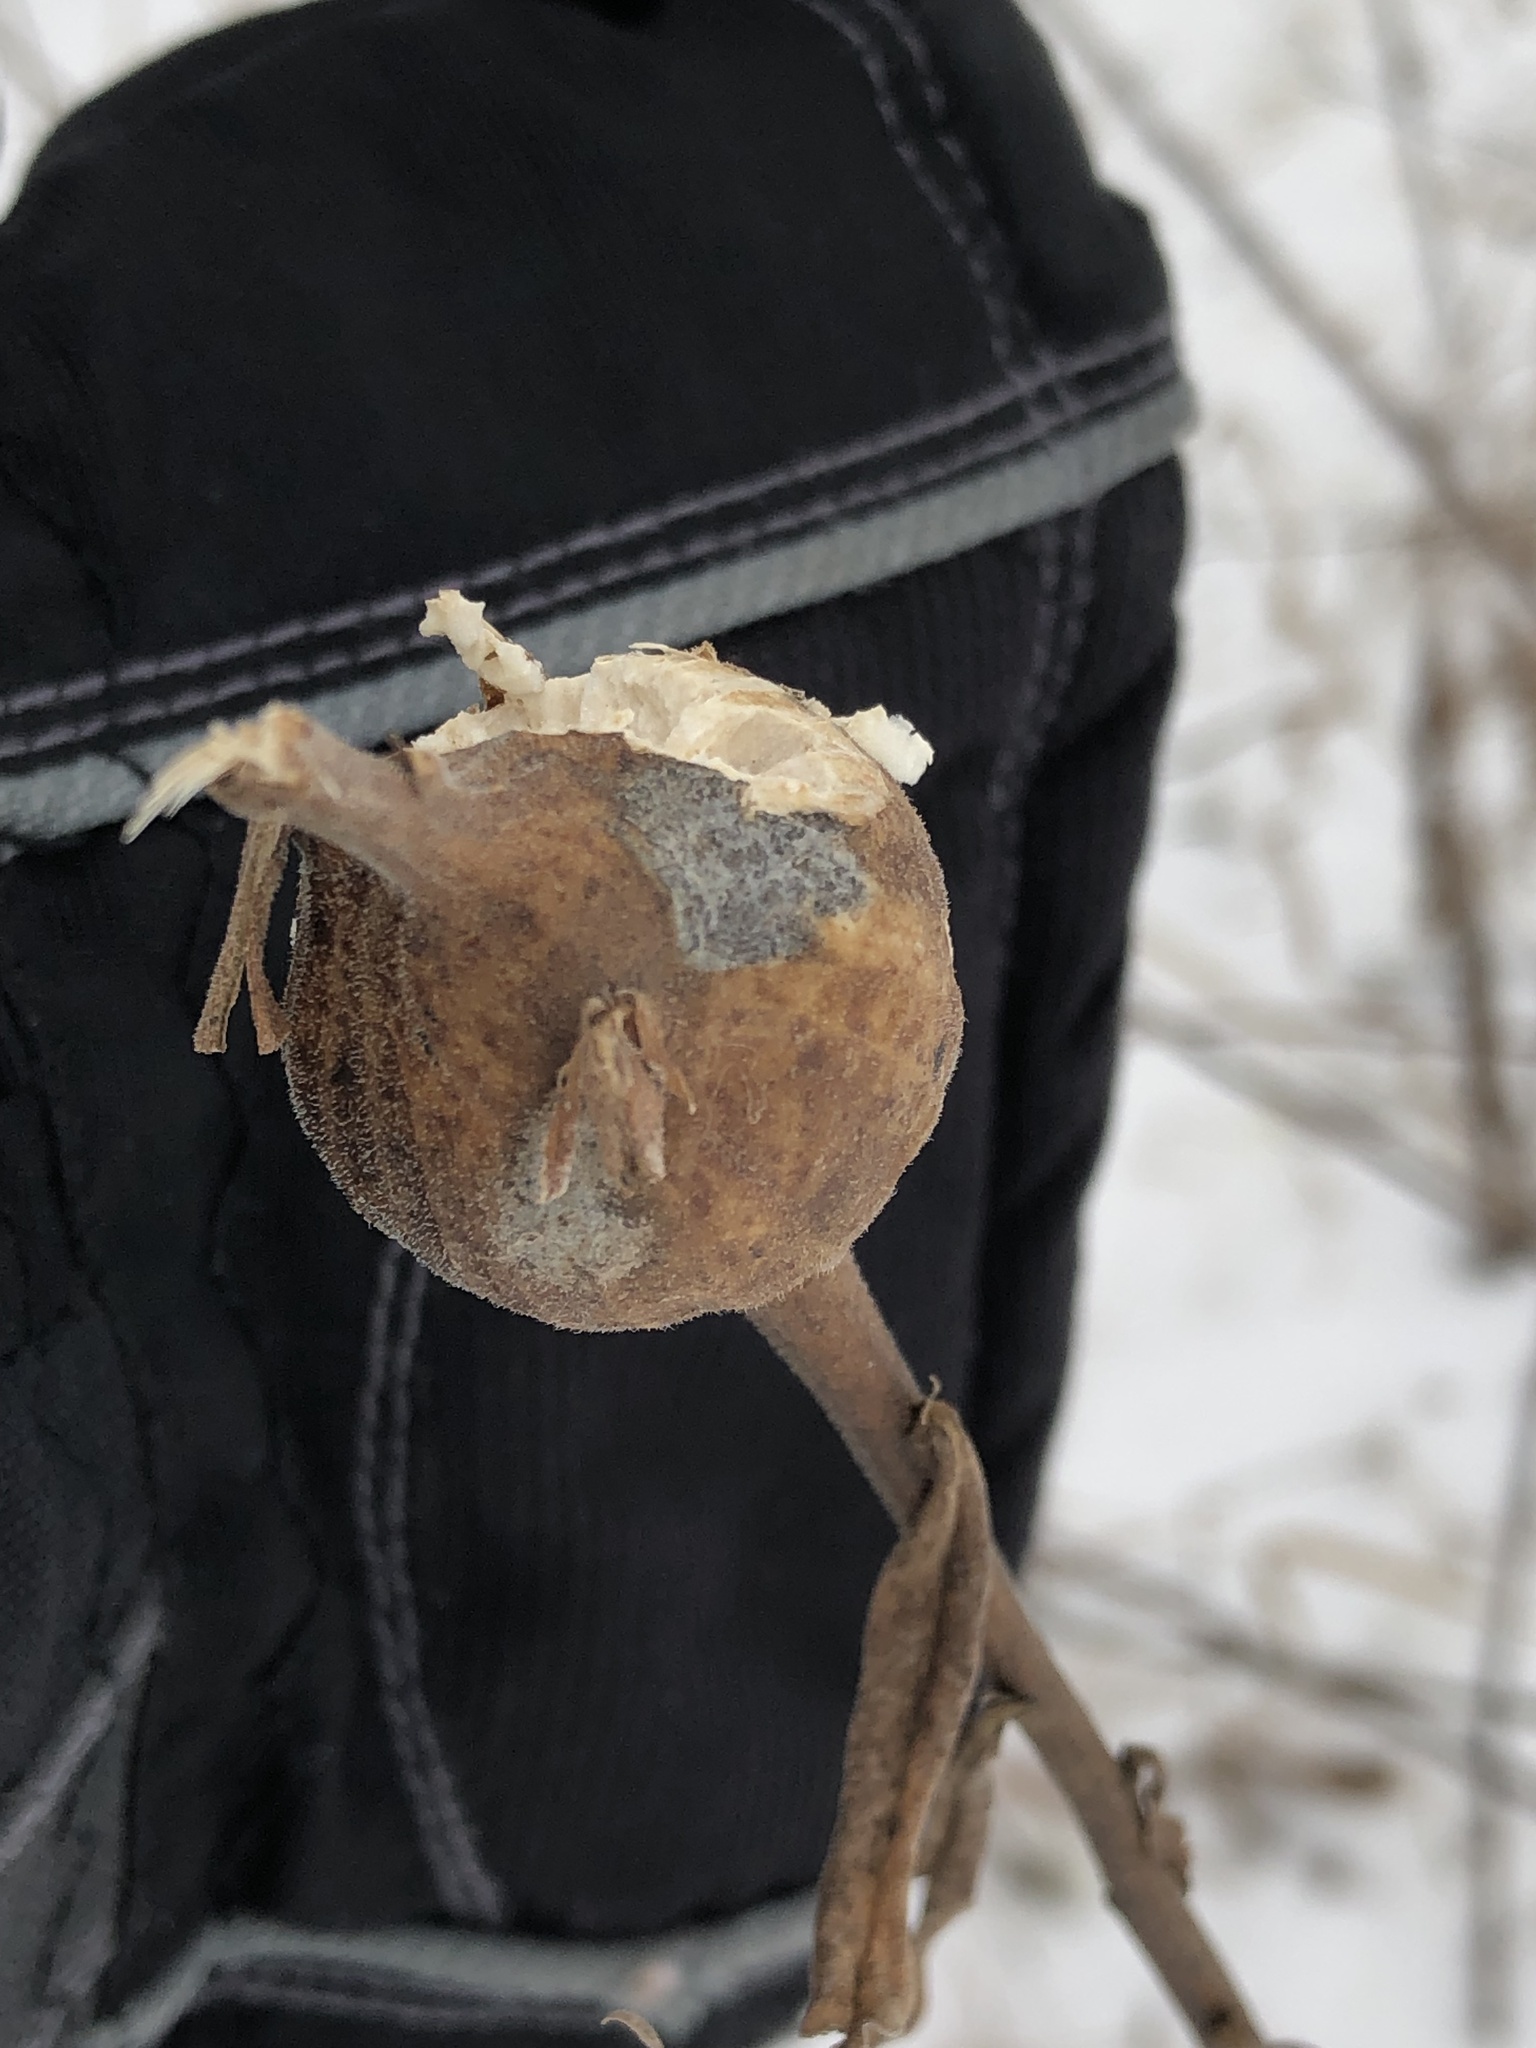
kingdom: Animalia
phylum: Arthropoda
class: Insecta
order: Diptera
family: Tephritidae
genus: Eurosta
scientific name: Eurosta solidaginis
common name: Goldenrod gall fly
